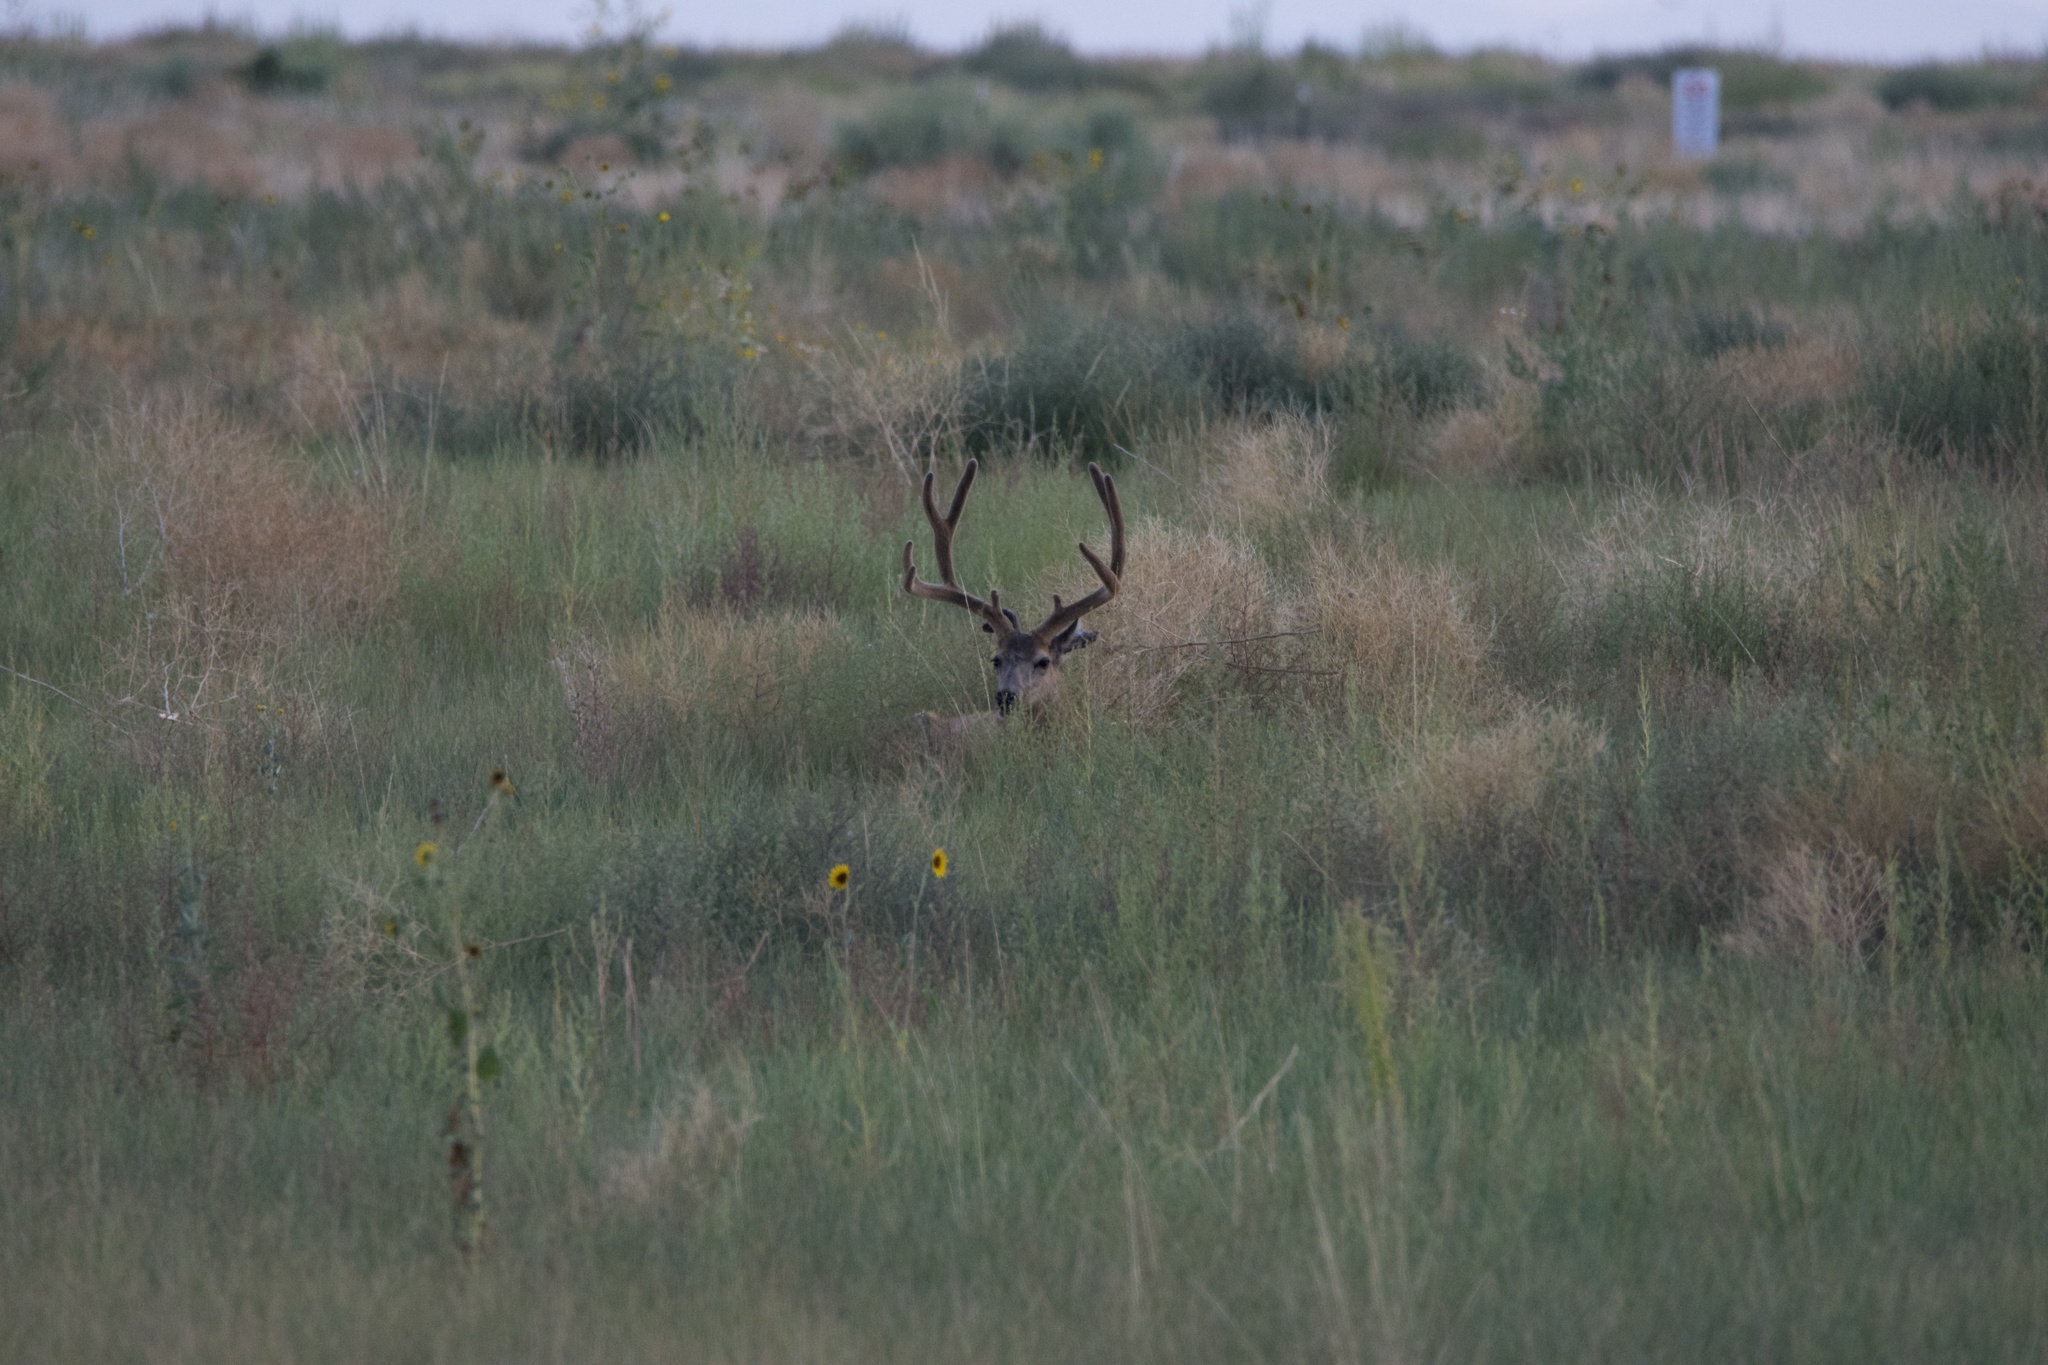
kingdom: Animalia
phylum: Chordata
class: Mammalia
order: Artiodactyla
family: Cervidae
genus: Odocoileus
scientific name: Odocoileus hemionus
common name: Mule deer
